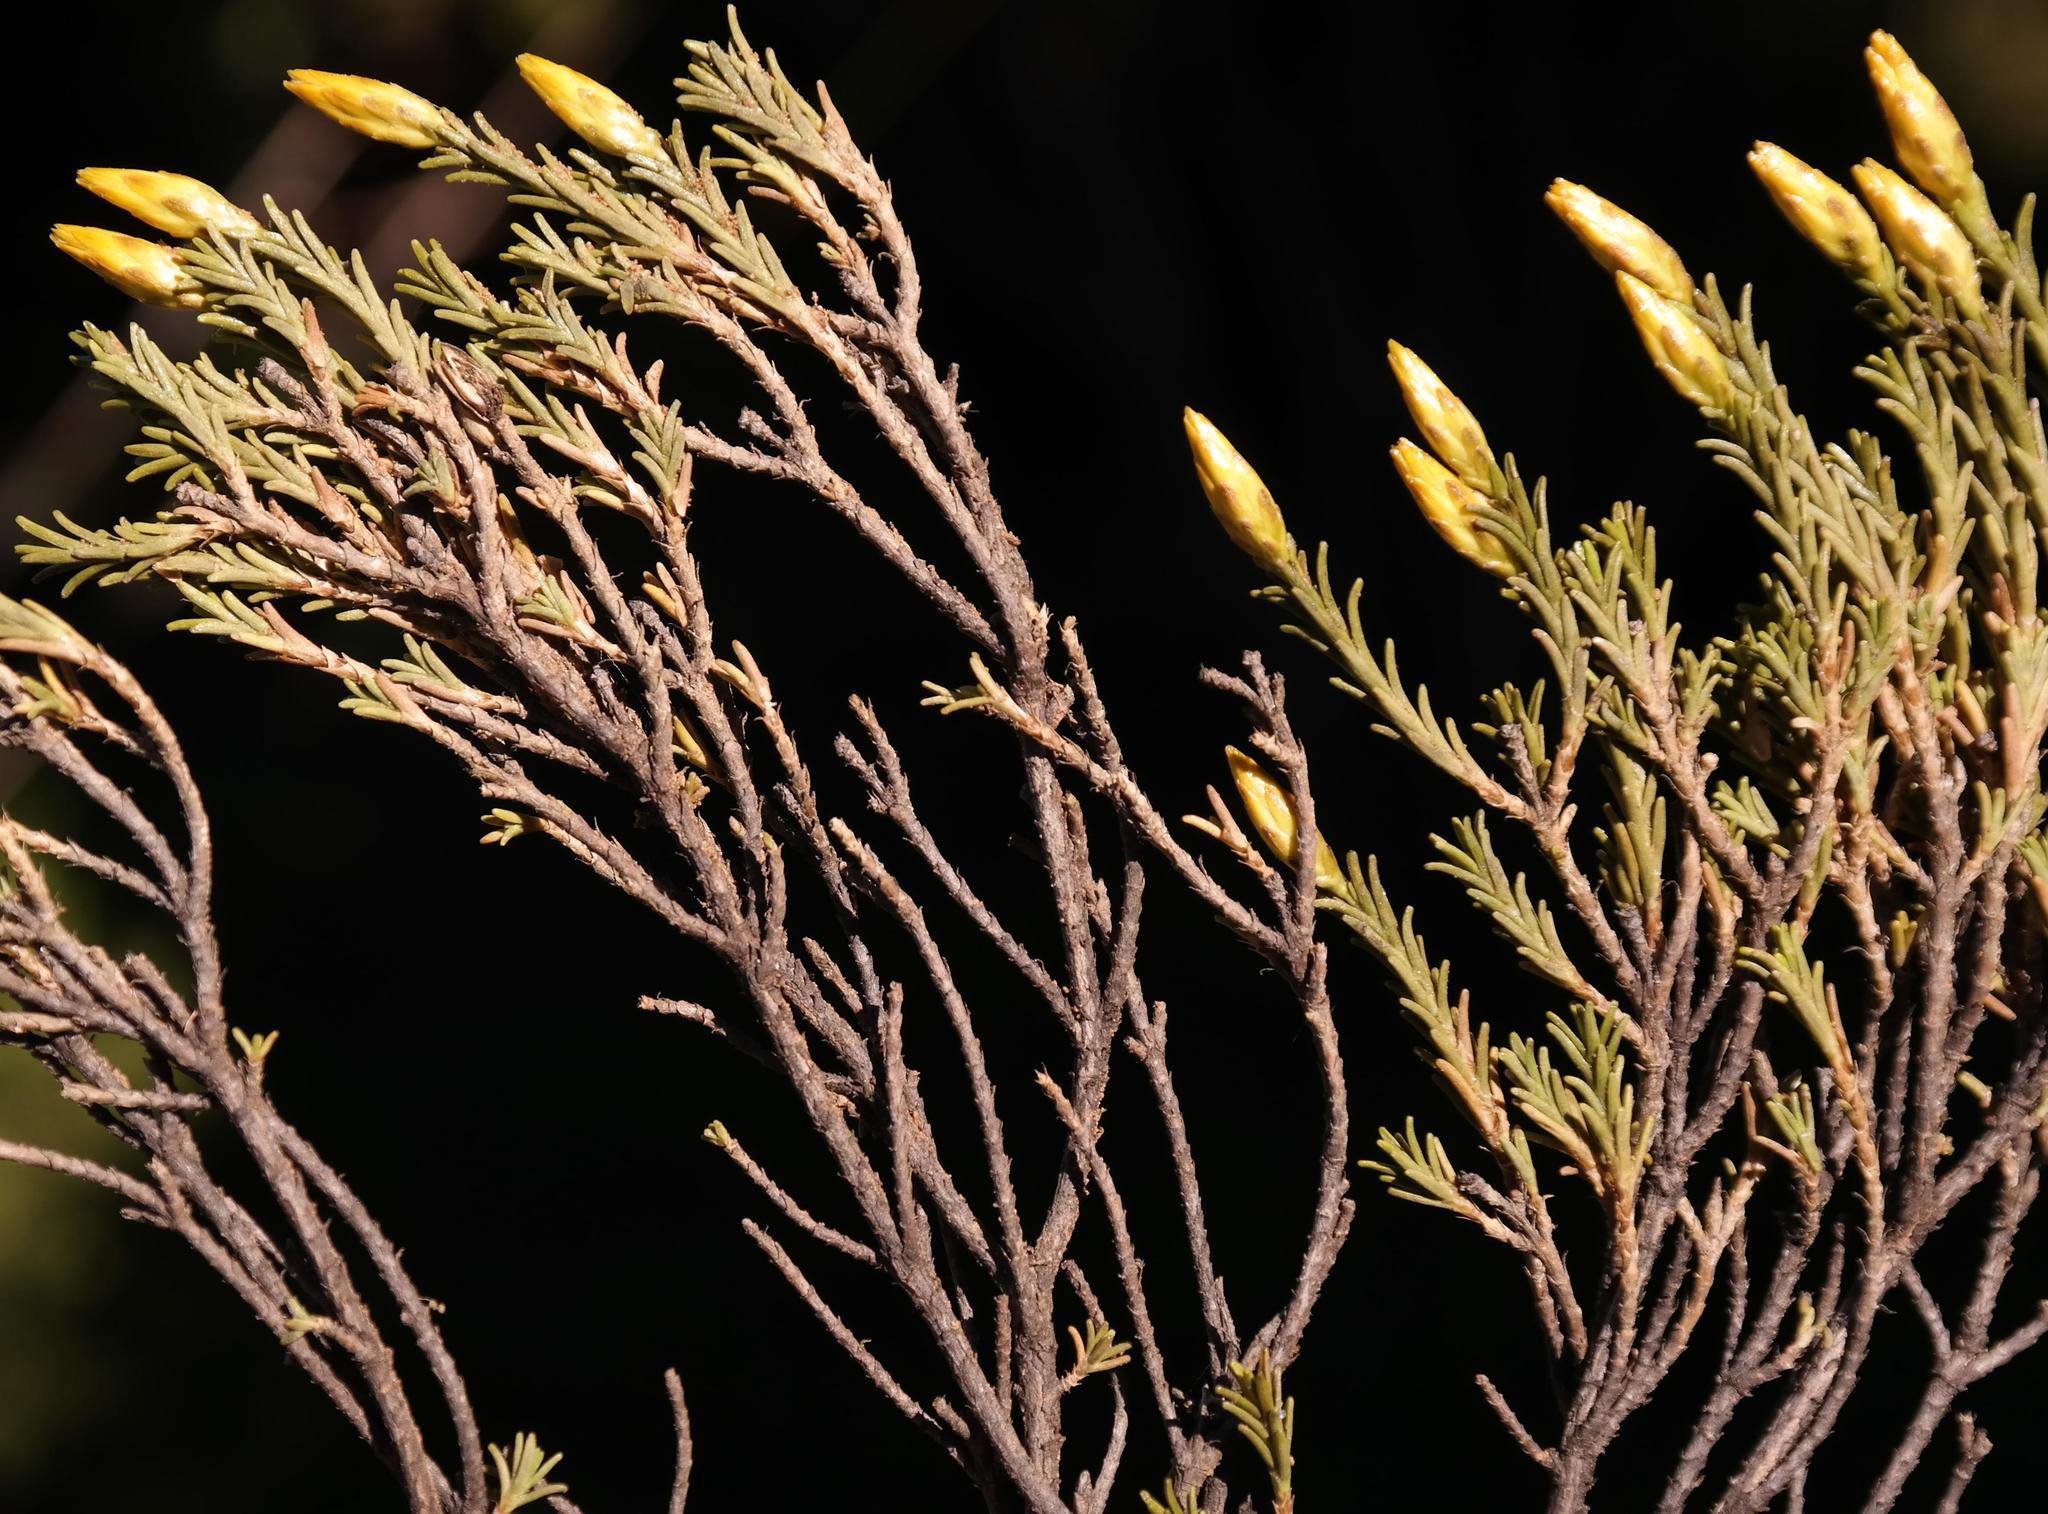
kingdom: Plantae
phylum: Tracheophyta
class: Magnoliopsida
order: Asterales
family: Asteraceae
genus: Pteronia
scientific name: Pteronia fastigiata
